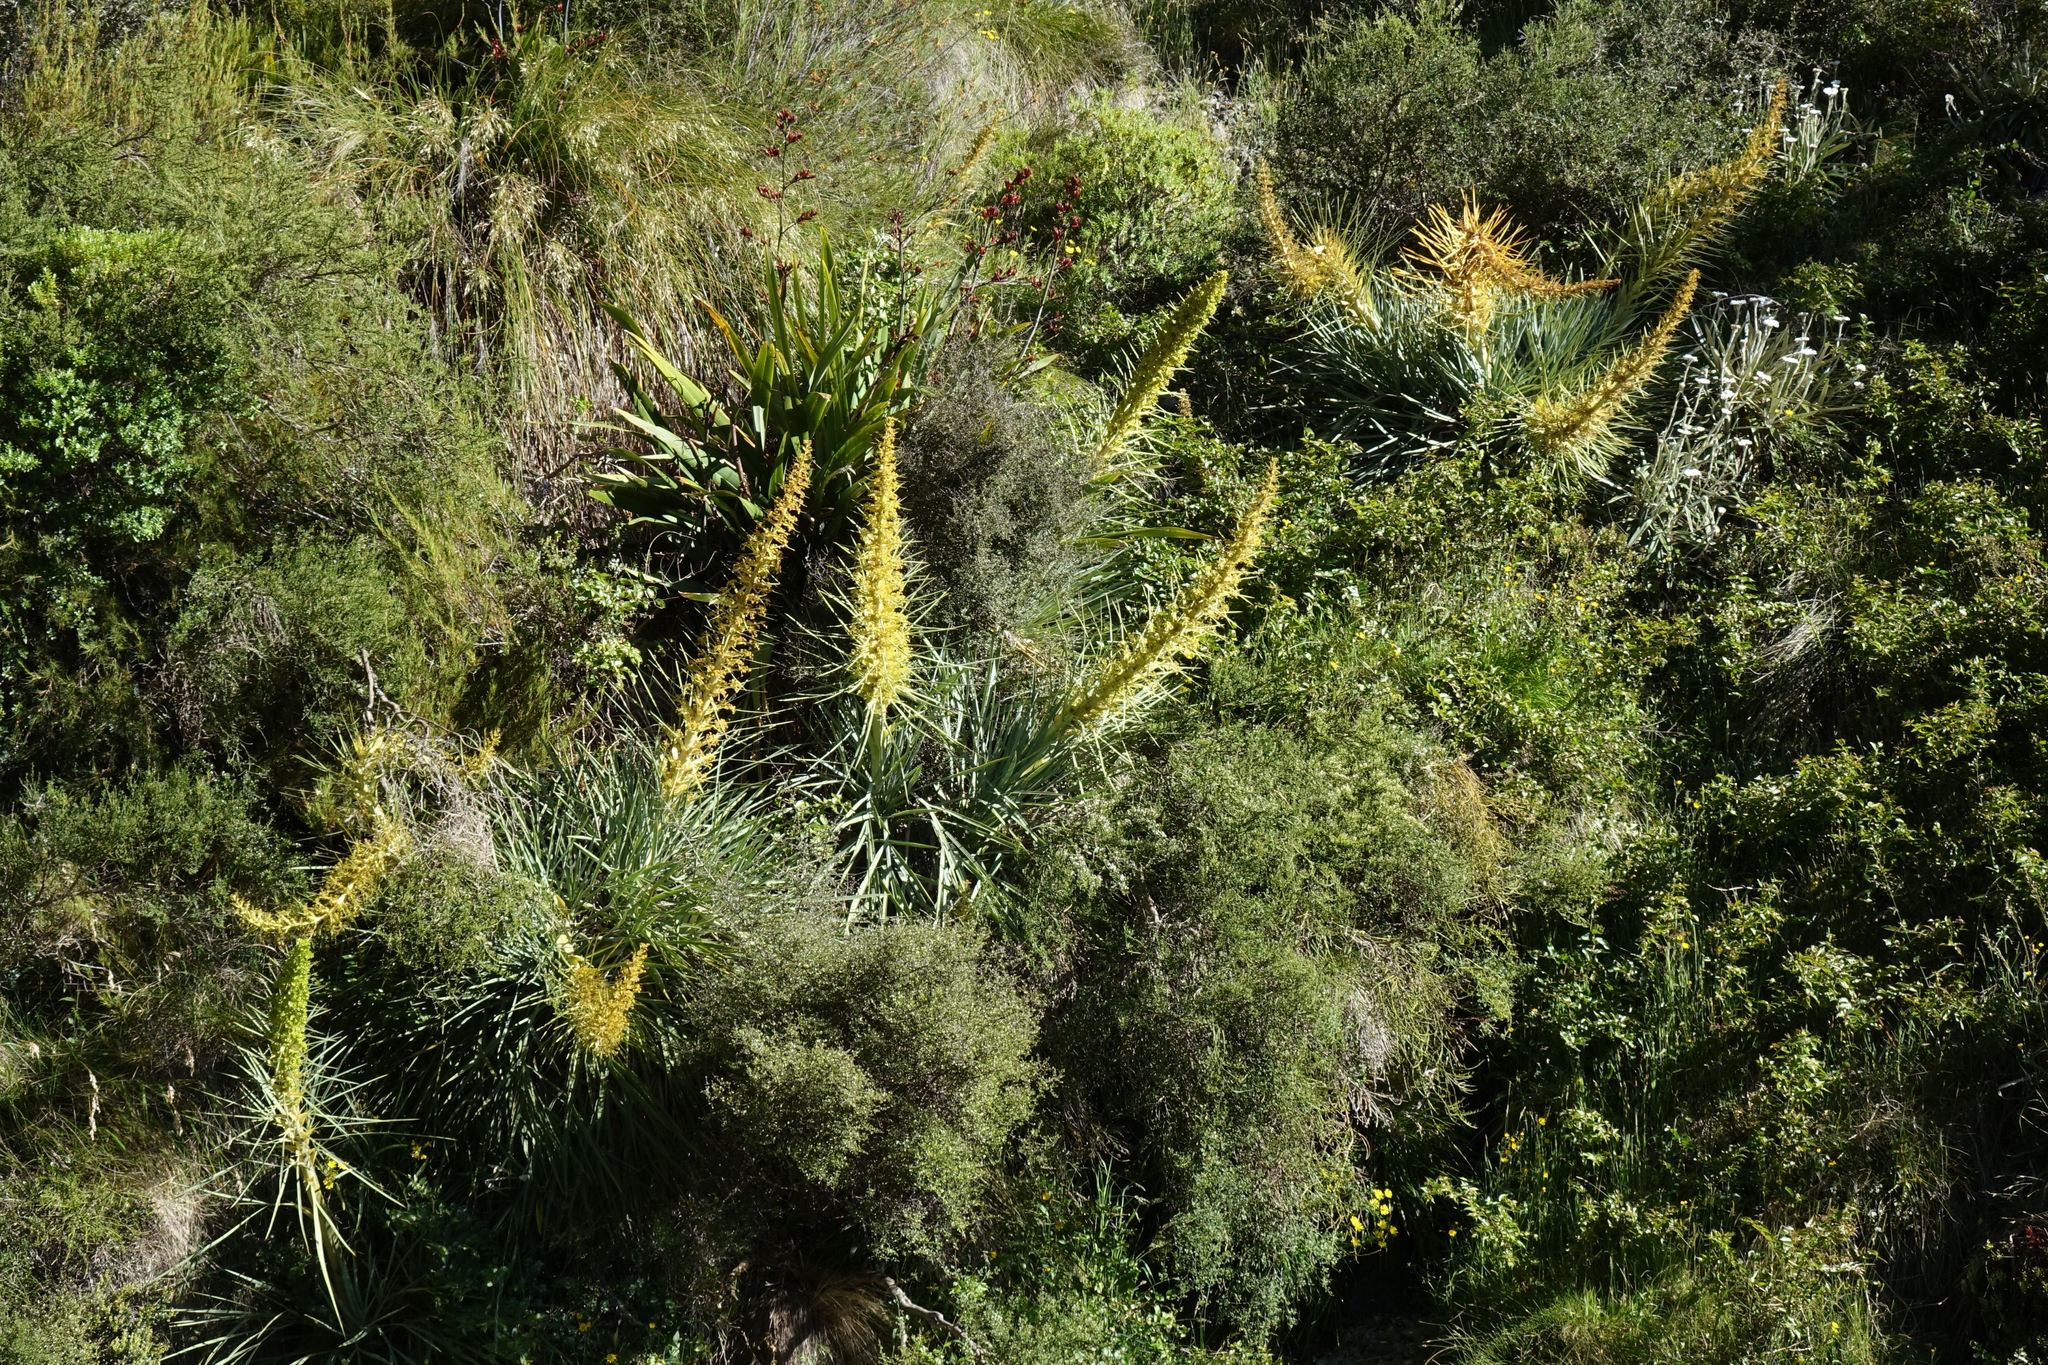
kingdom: Plantae
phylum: Tracheophyta
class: Magnoliopsida
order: Apiales
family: Apiaceae
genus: Aciphylla
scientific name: Aciphylla scott-thomsonii
